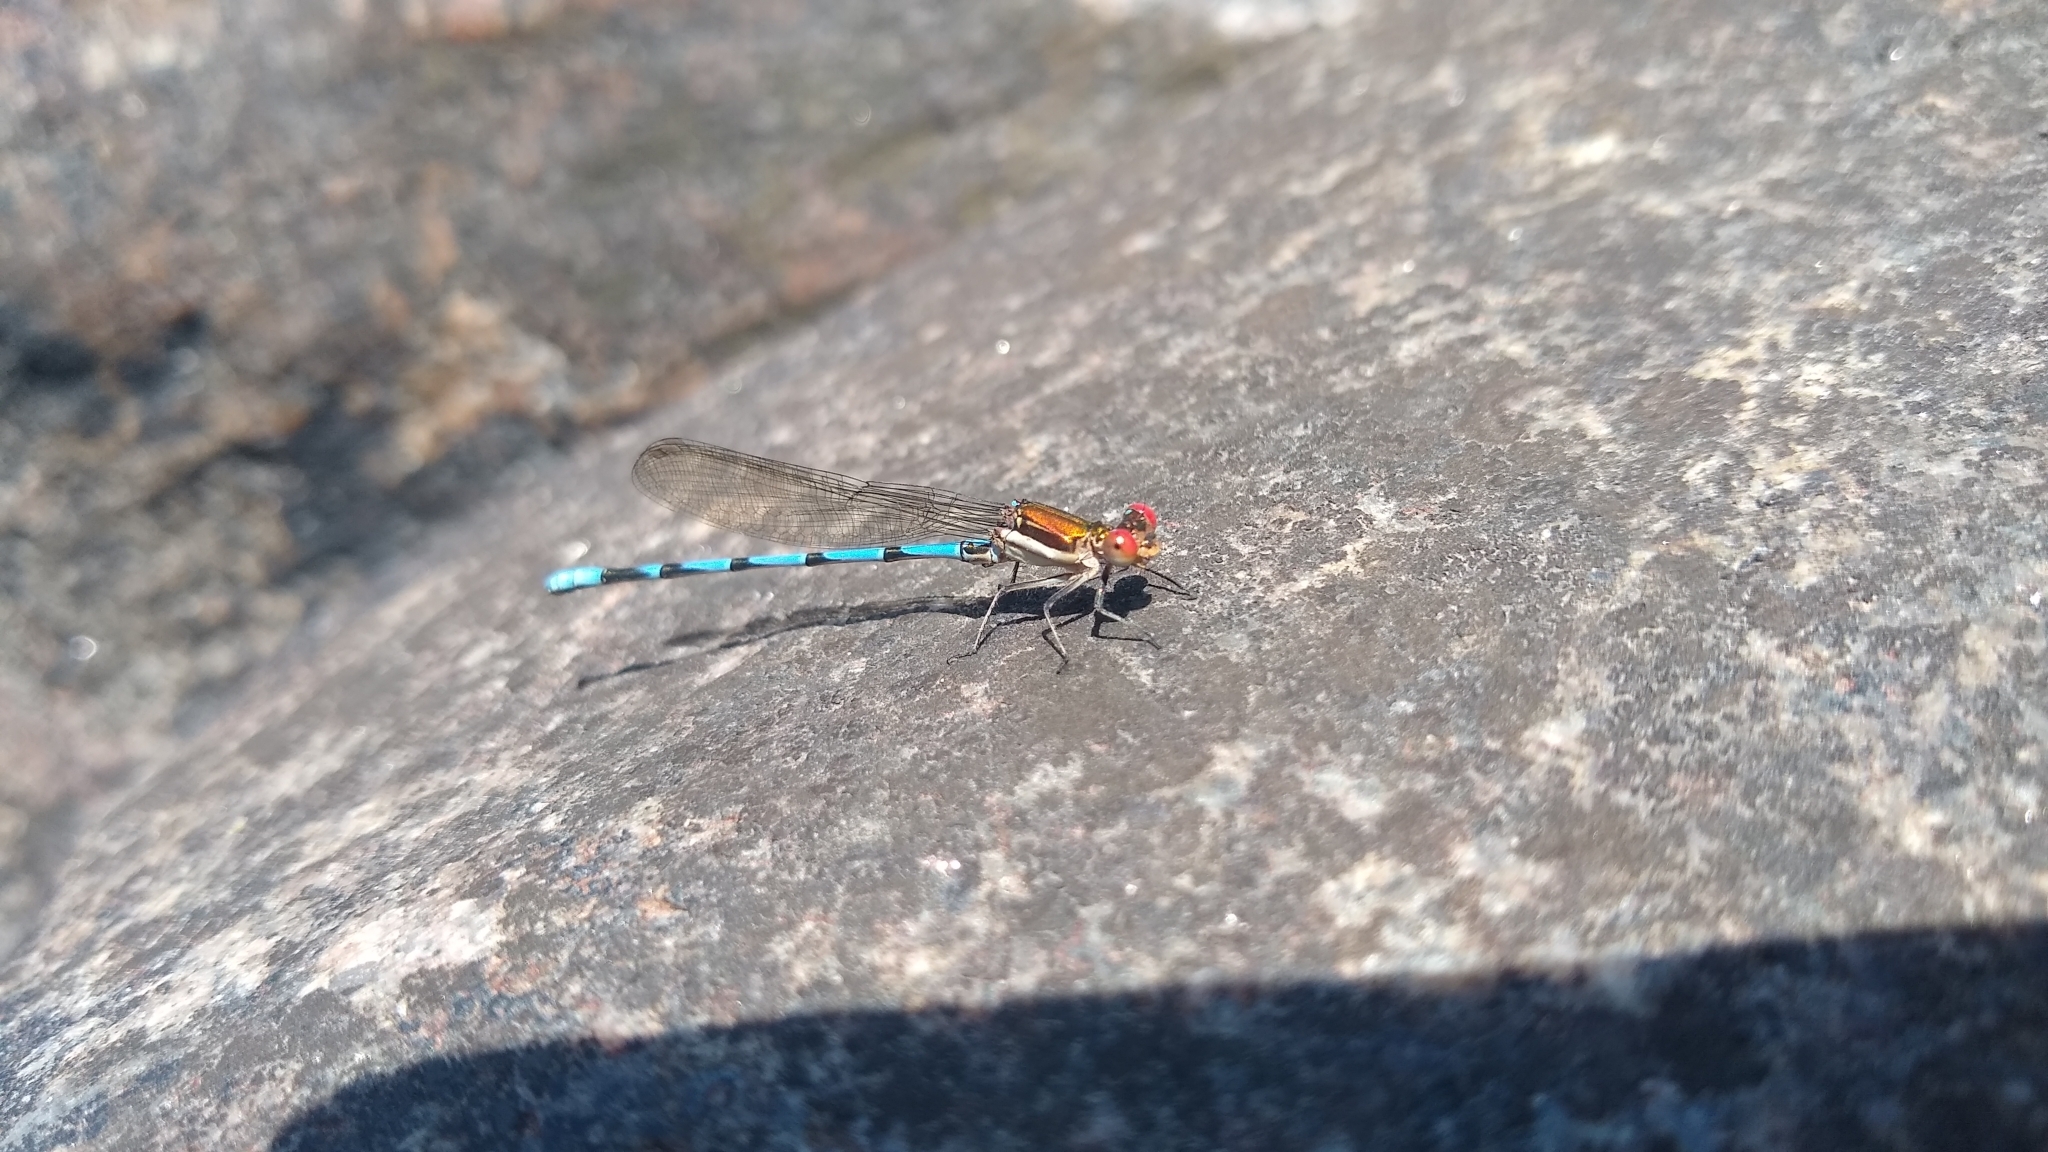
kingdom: Animalia
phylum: Arthropoda
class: Insecta
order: Odonata
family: Coenagrionidae
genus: Argia
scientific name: Argia joergenseni
